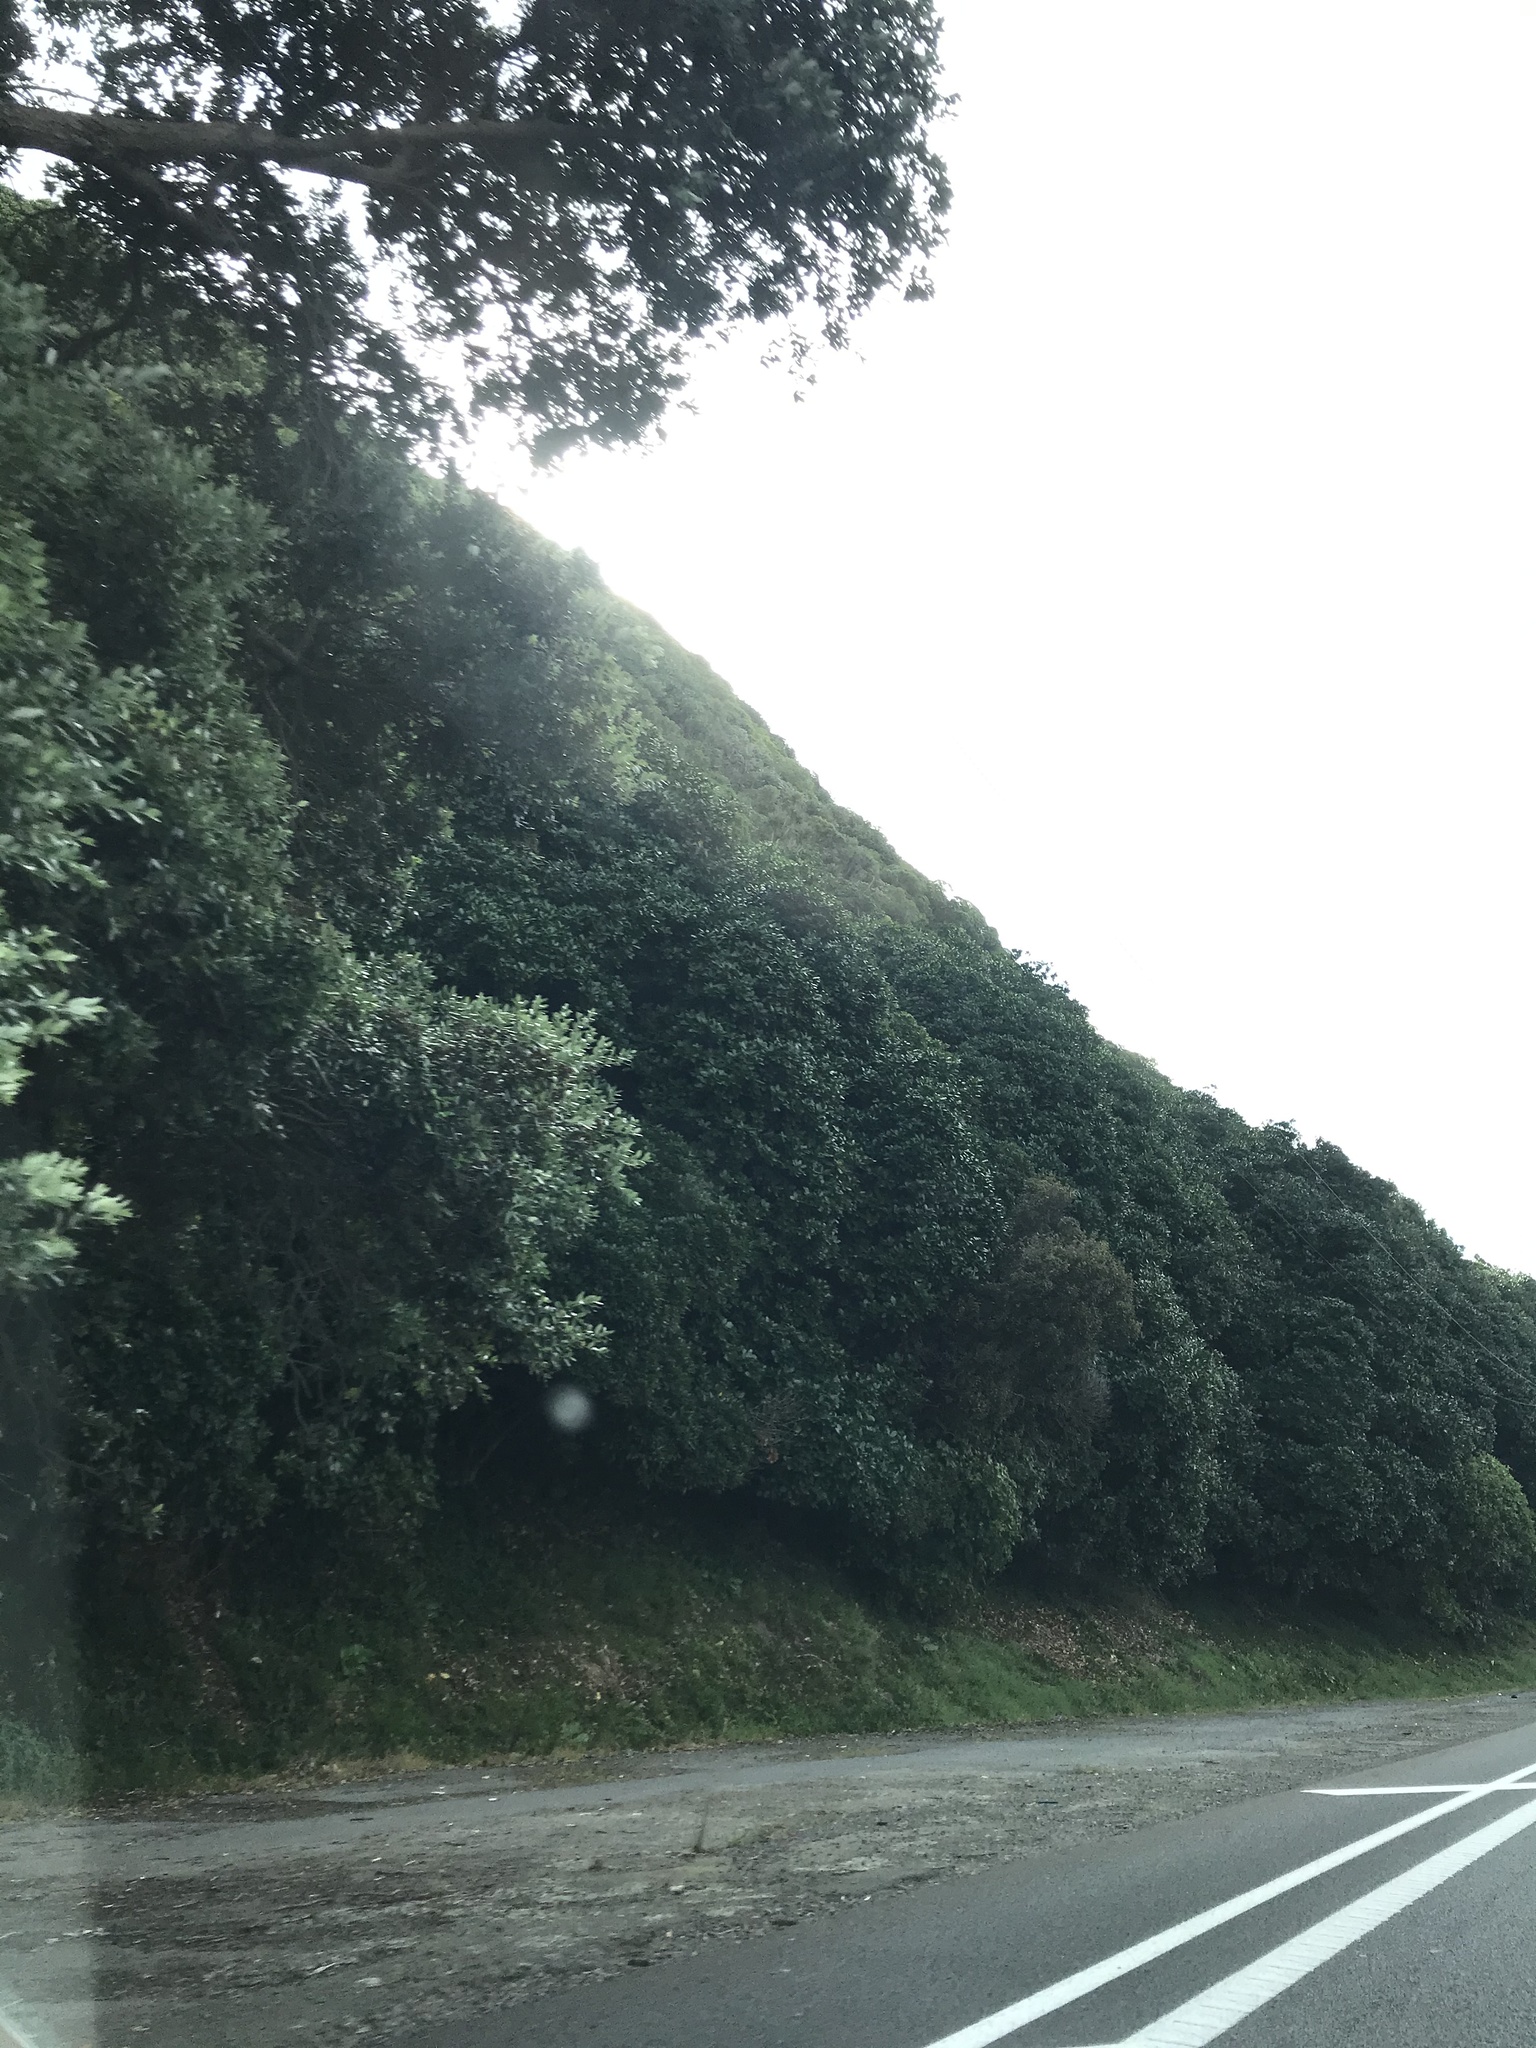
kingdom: Plantae
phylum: Tracheophyta
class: Magnoliopsida
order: Cucurbitales
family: Corynocarpaceae
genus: Corynocarpus
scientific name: Corynocarpus laevigatus
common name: New zealand laurel
